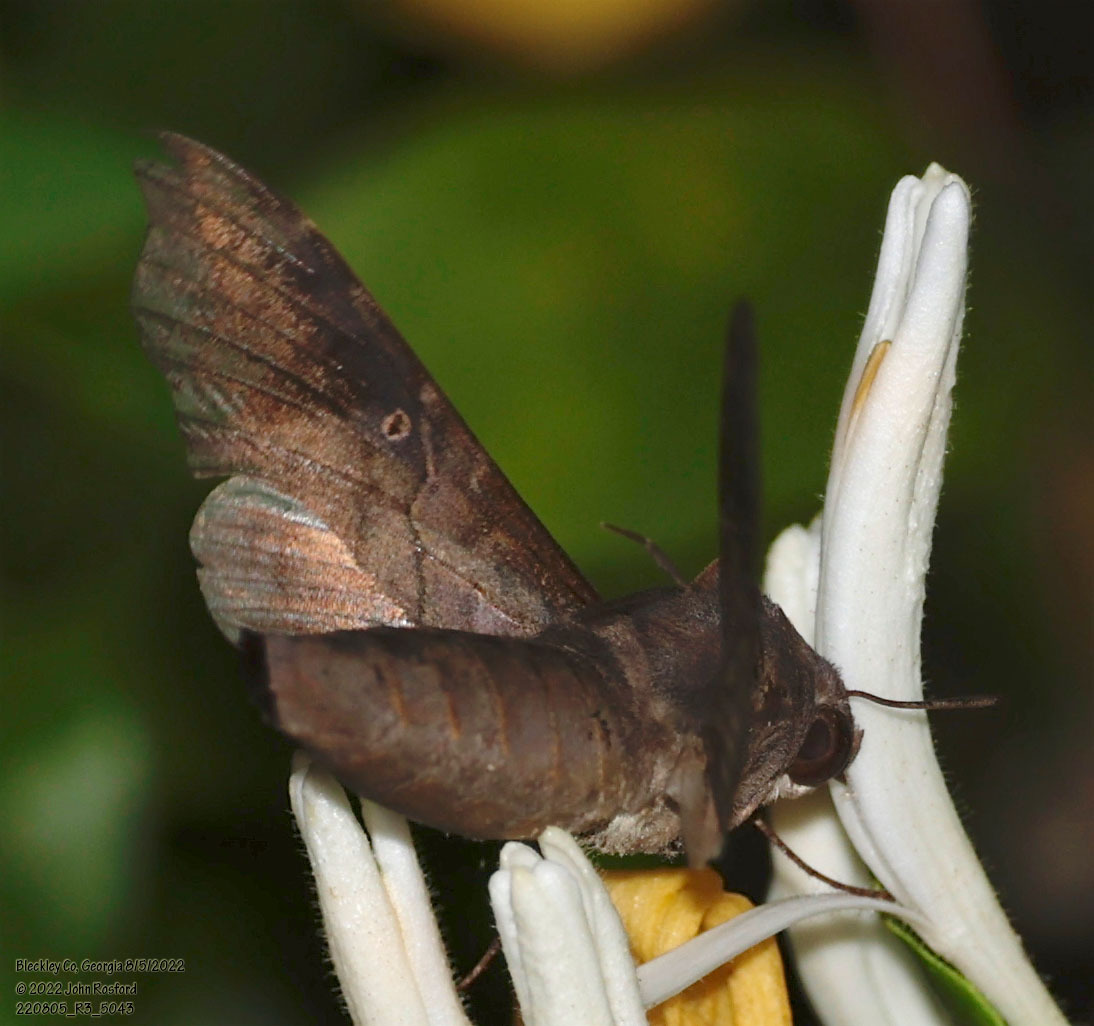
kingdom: Animalia
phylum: Arthropoda
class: Insecta
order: Lepidoptera
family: Sphingidae
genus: Enyo
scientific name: Enyo lugubris
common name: Mournful sphinx
